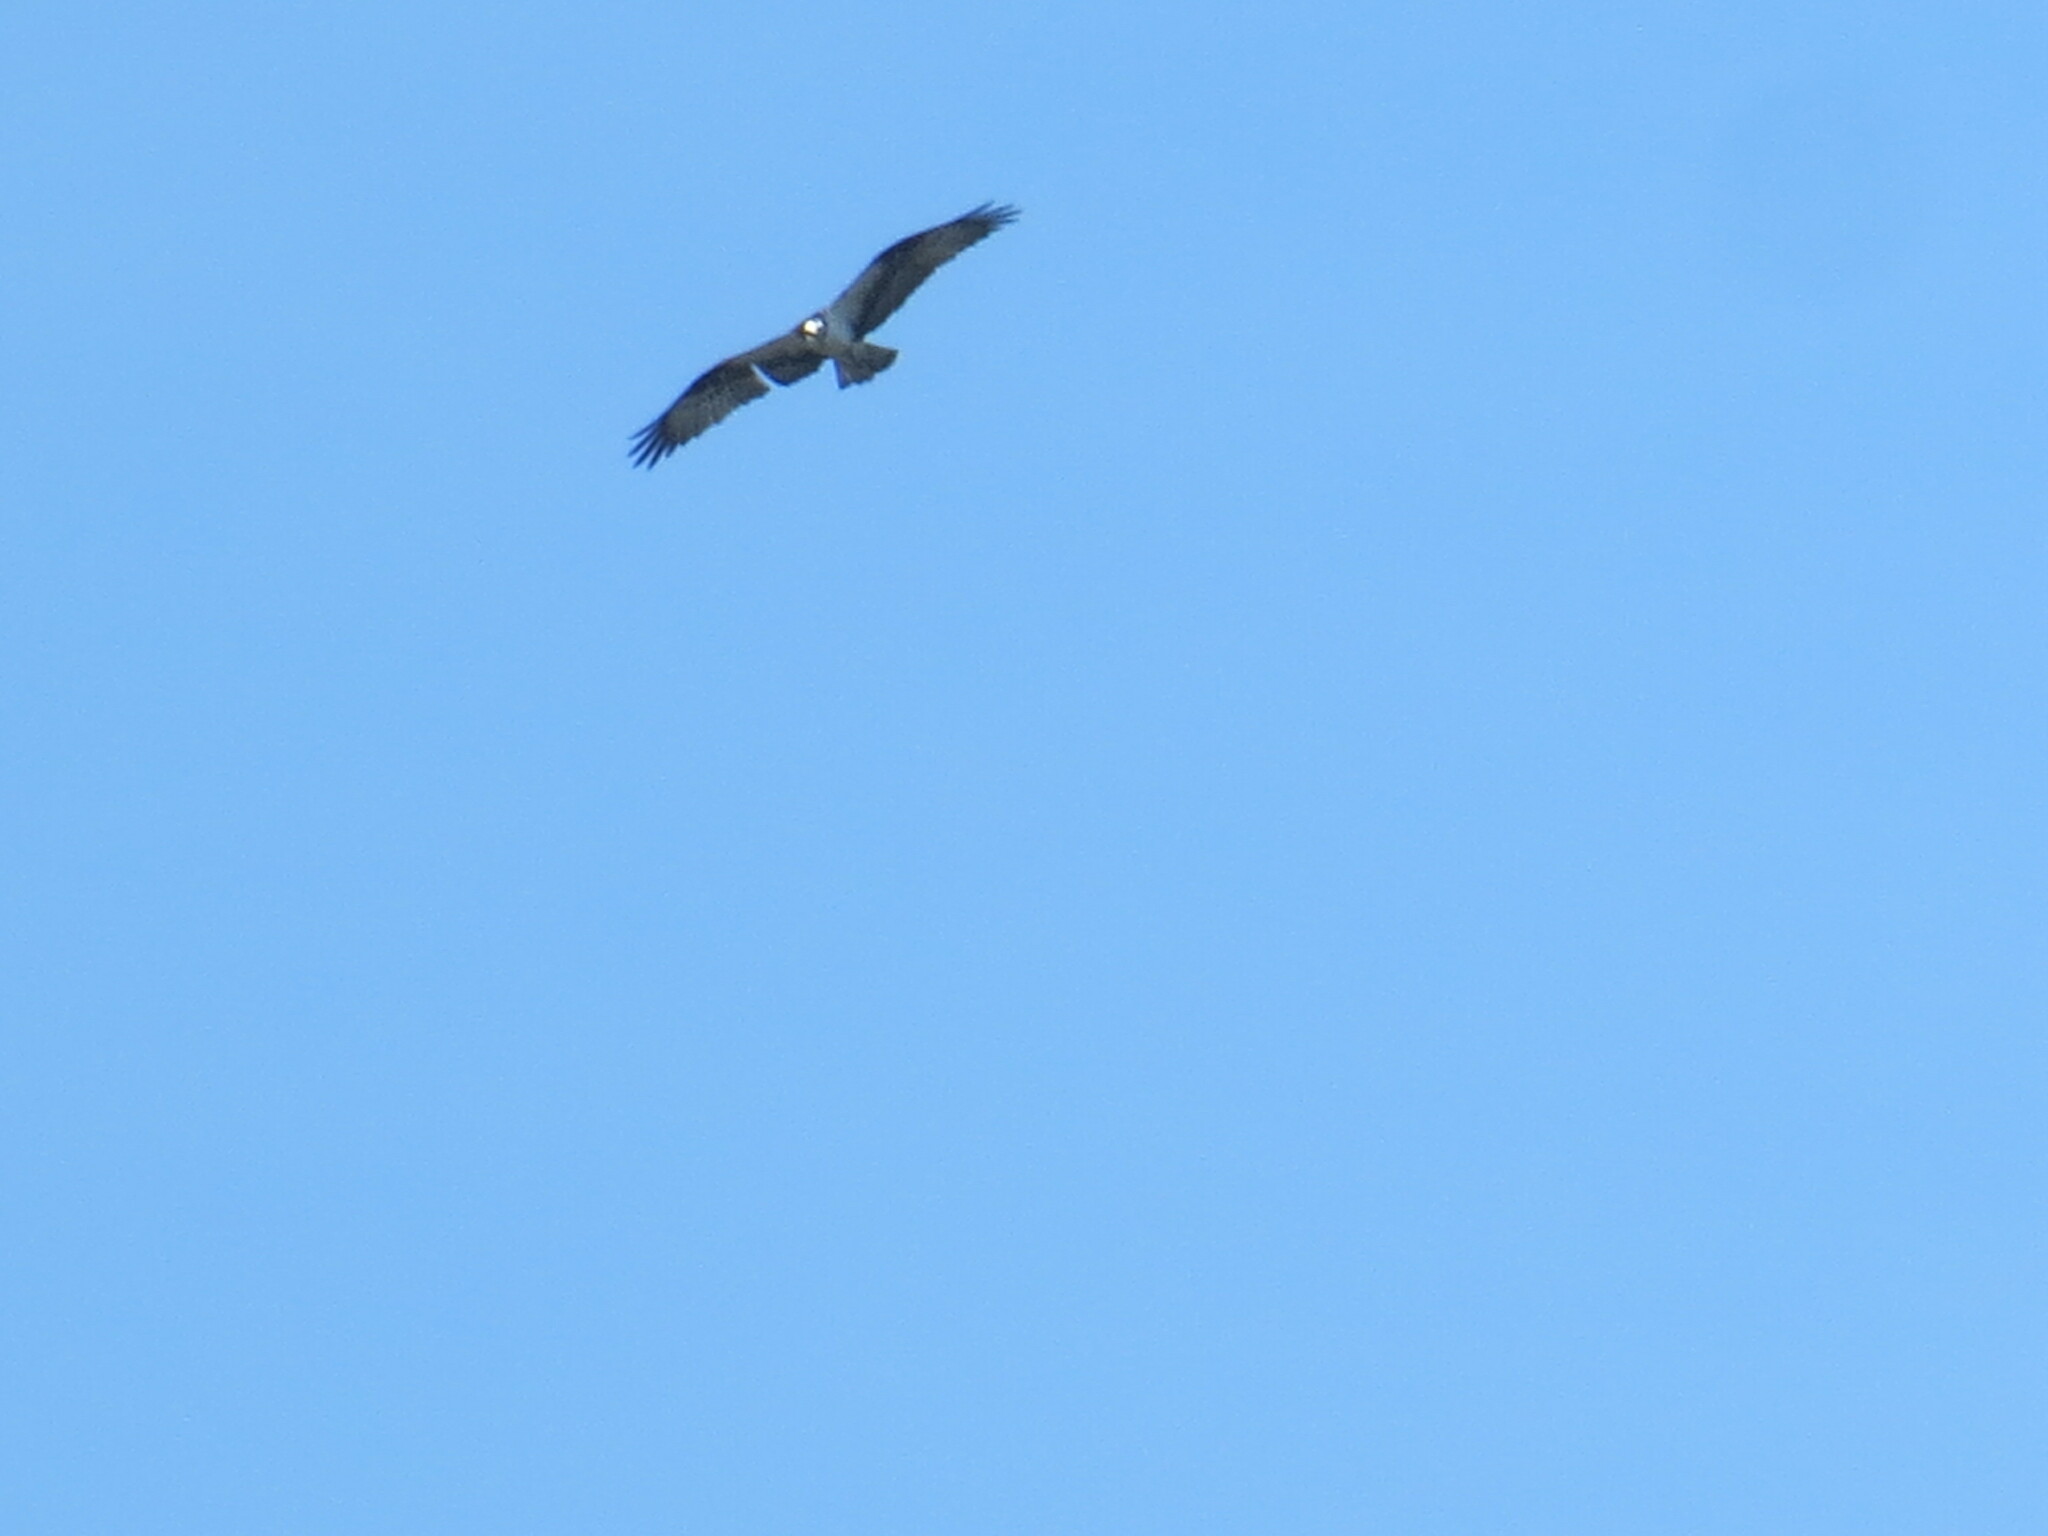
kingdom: Animalia
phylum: Chordata
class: Aves
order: Accipitriformes
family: Pandionidae
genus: Pandion
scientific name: Pandion haliaetus
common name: Osprey
